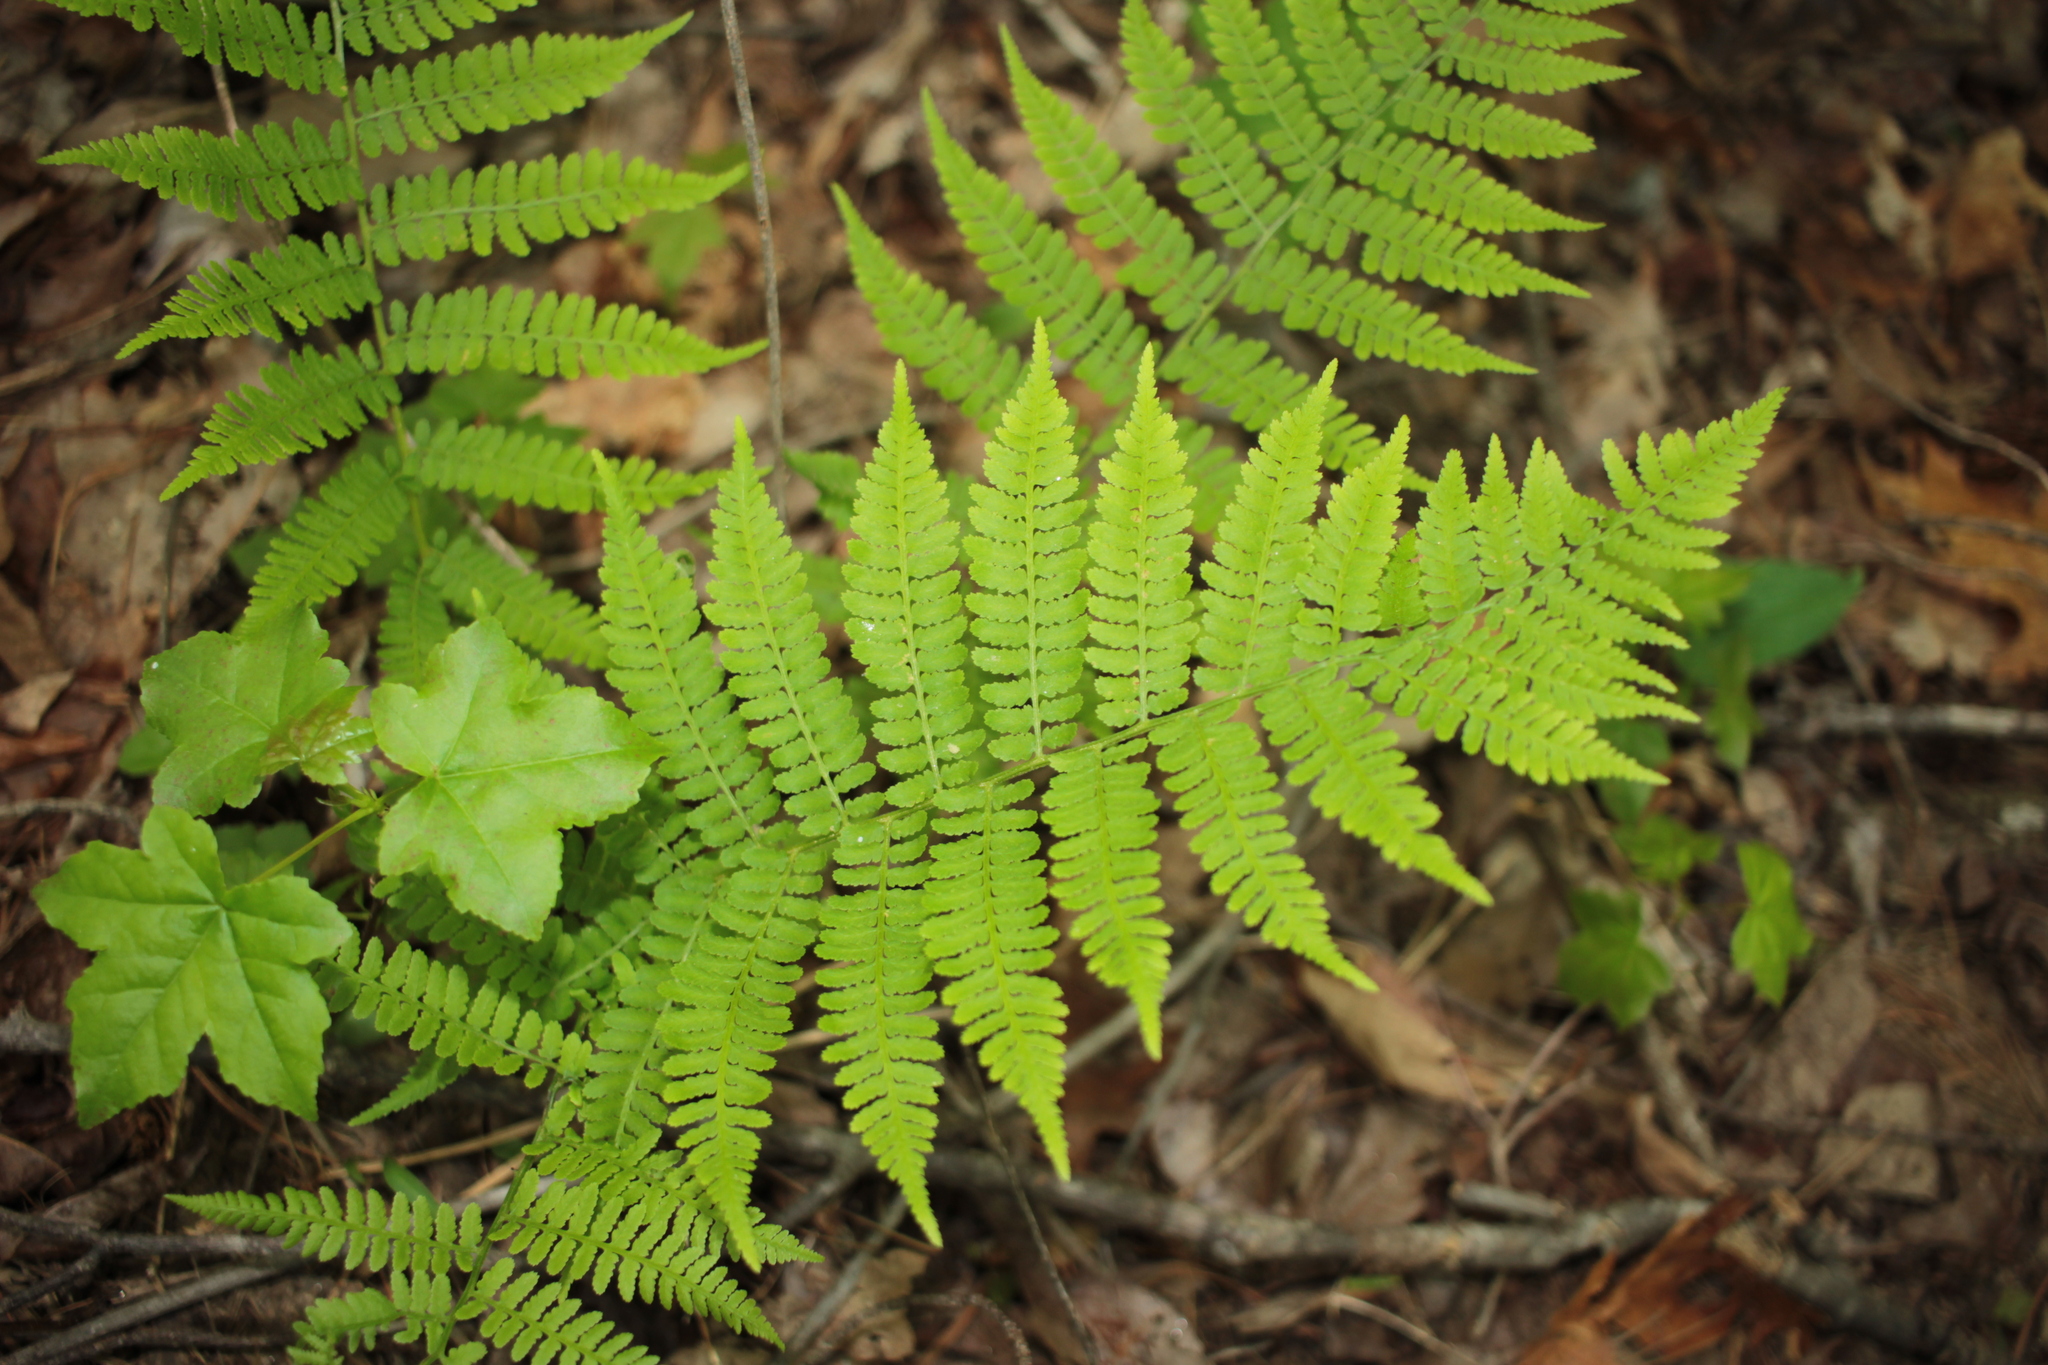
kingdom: Plantae
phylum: Tracheophyta
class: Polypodiopsida
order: Polypodiales
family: Athyriaceae
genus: Athyrium
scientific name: Athyrium asplenioides
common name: Southern lady fern
